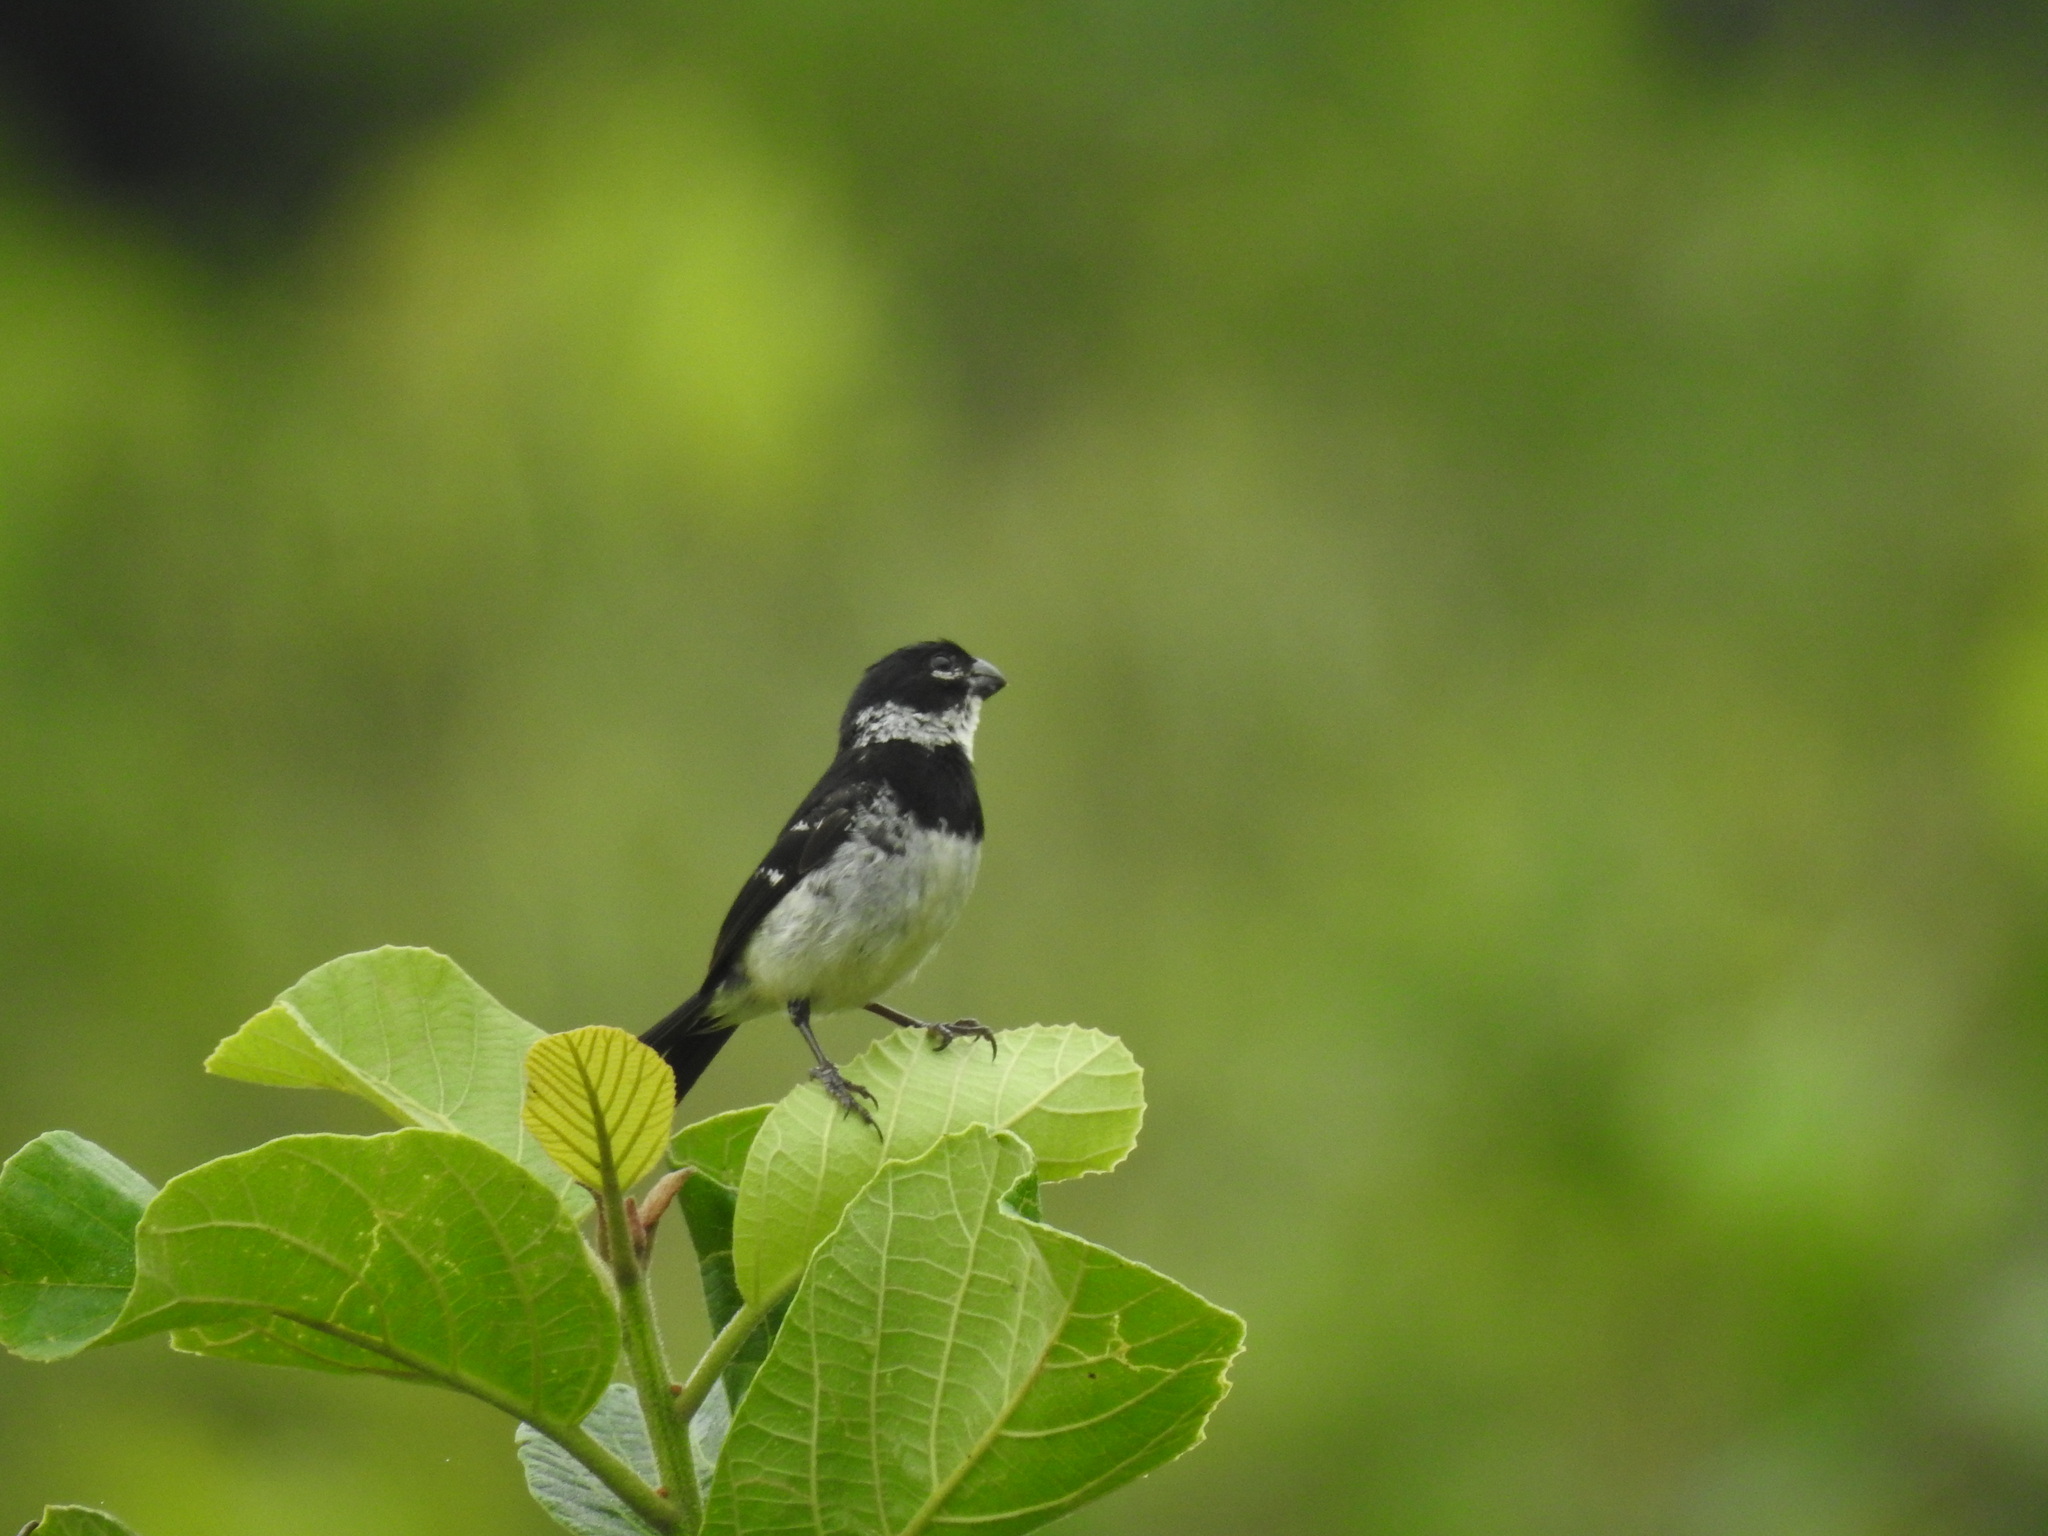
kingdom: Animalia
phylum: Chordata
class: Aves
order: Passeriformes
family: Thraupidae
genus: Sporophila
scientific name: Sporophila morelleti
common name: Morelet's seedeater
